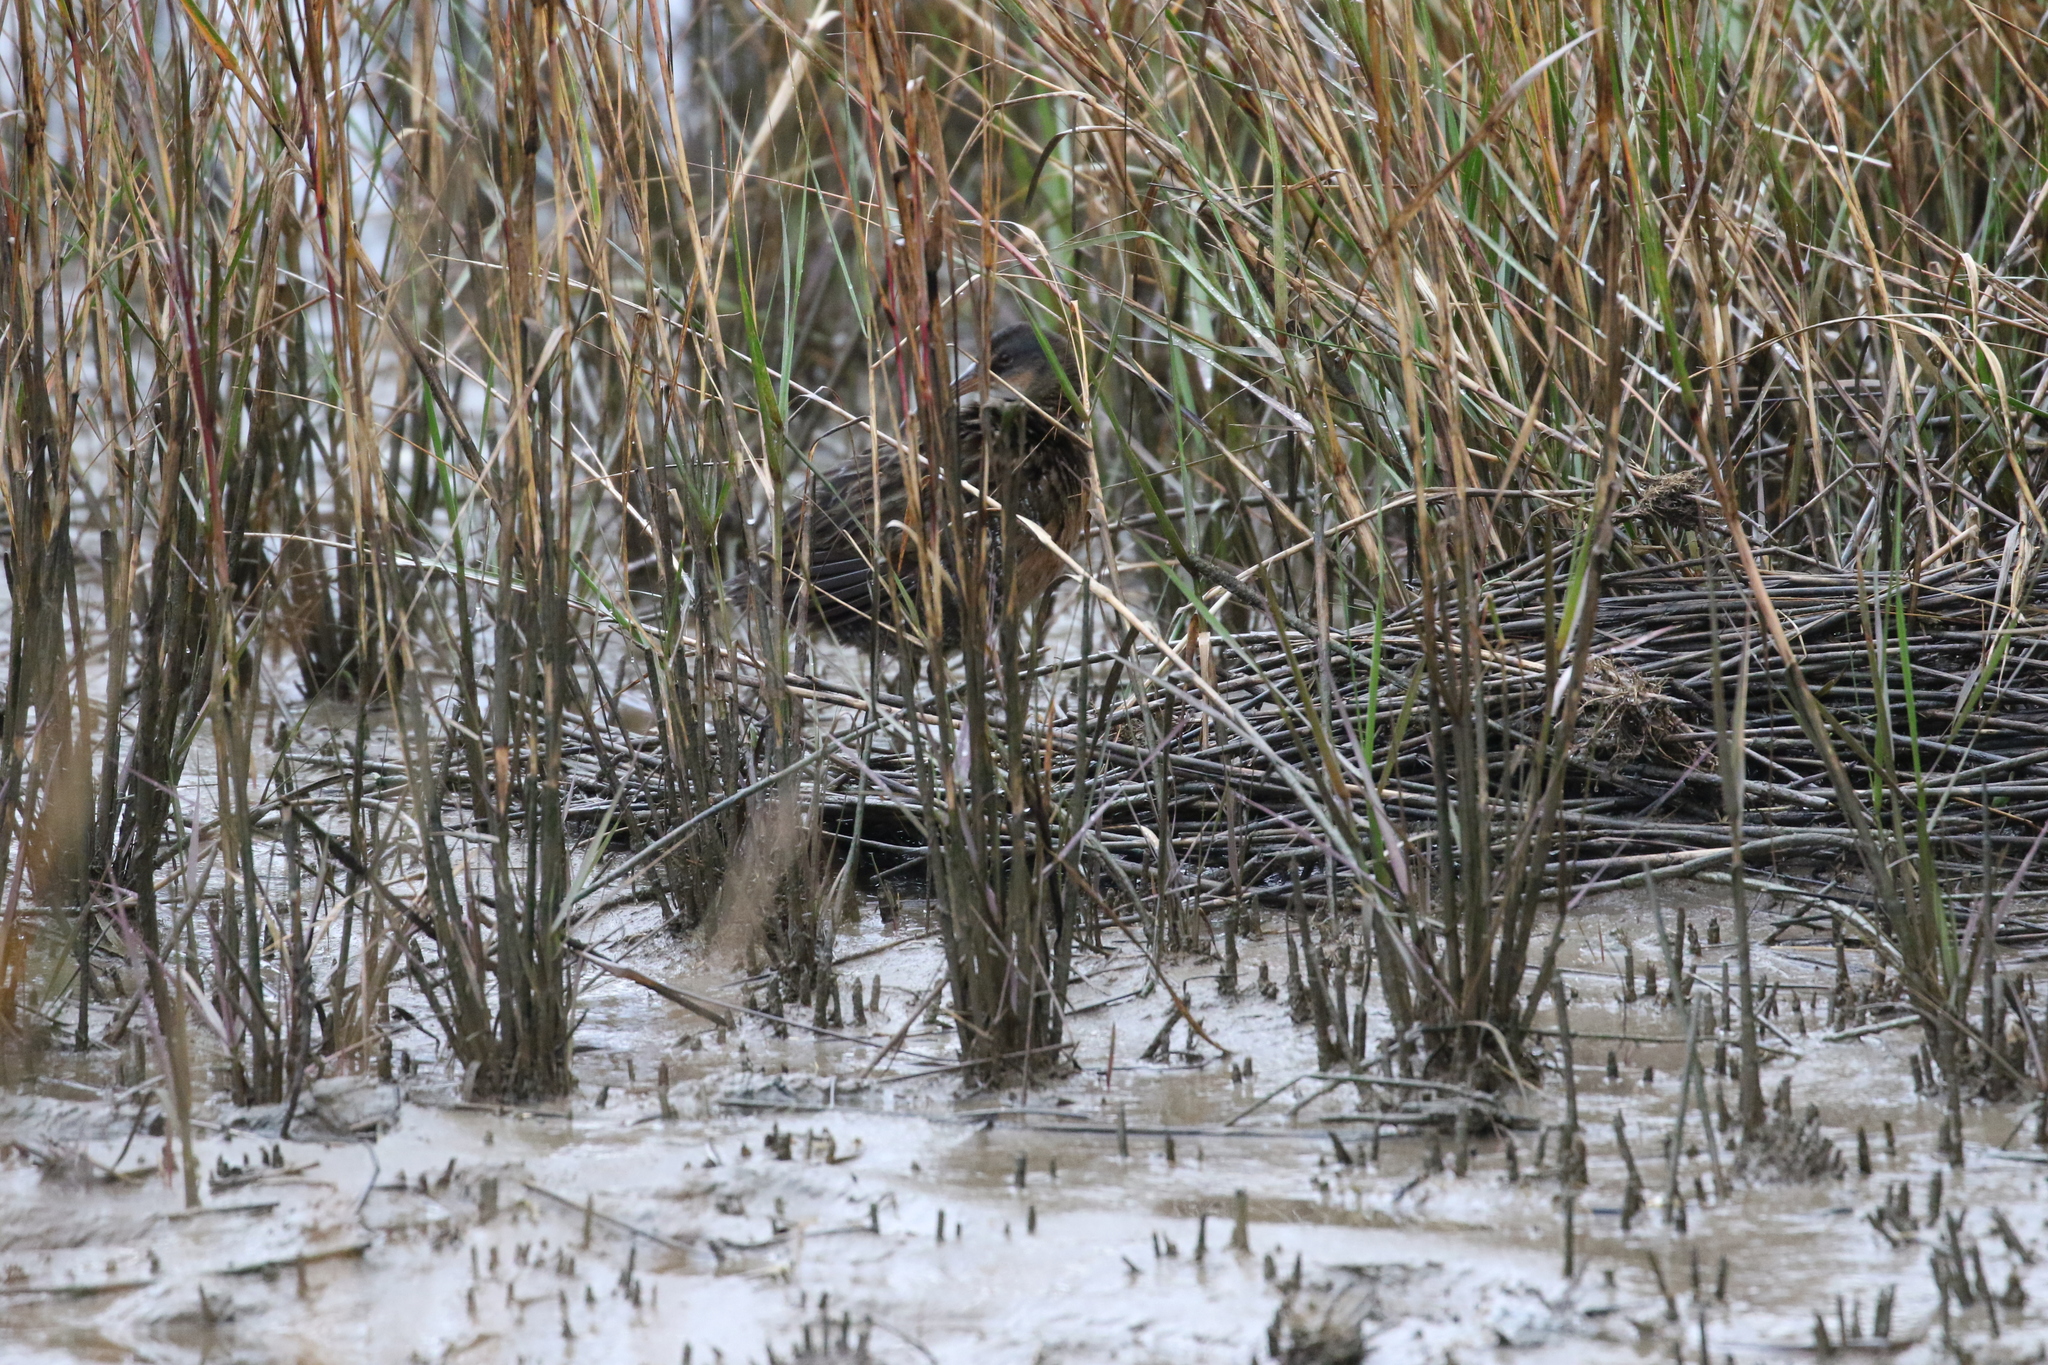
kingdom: Animalia
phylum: Chordata
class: Aves
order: Gruiformes
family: Rallidae
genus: Rallus
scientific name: Rallus crepitans
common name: Clapper rail
